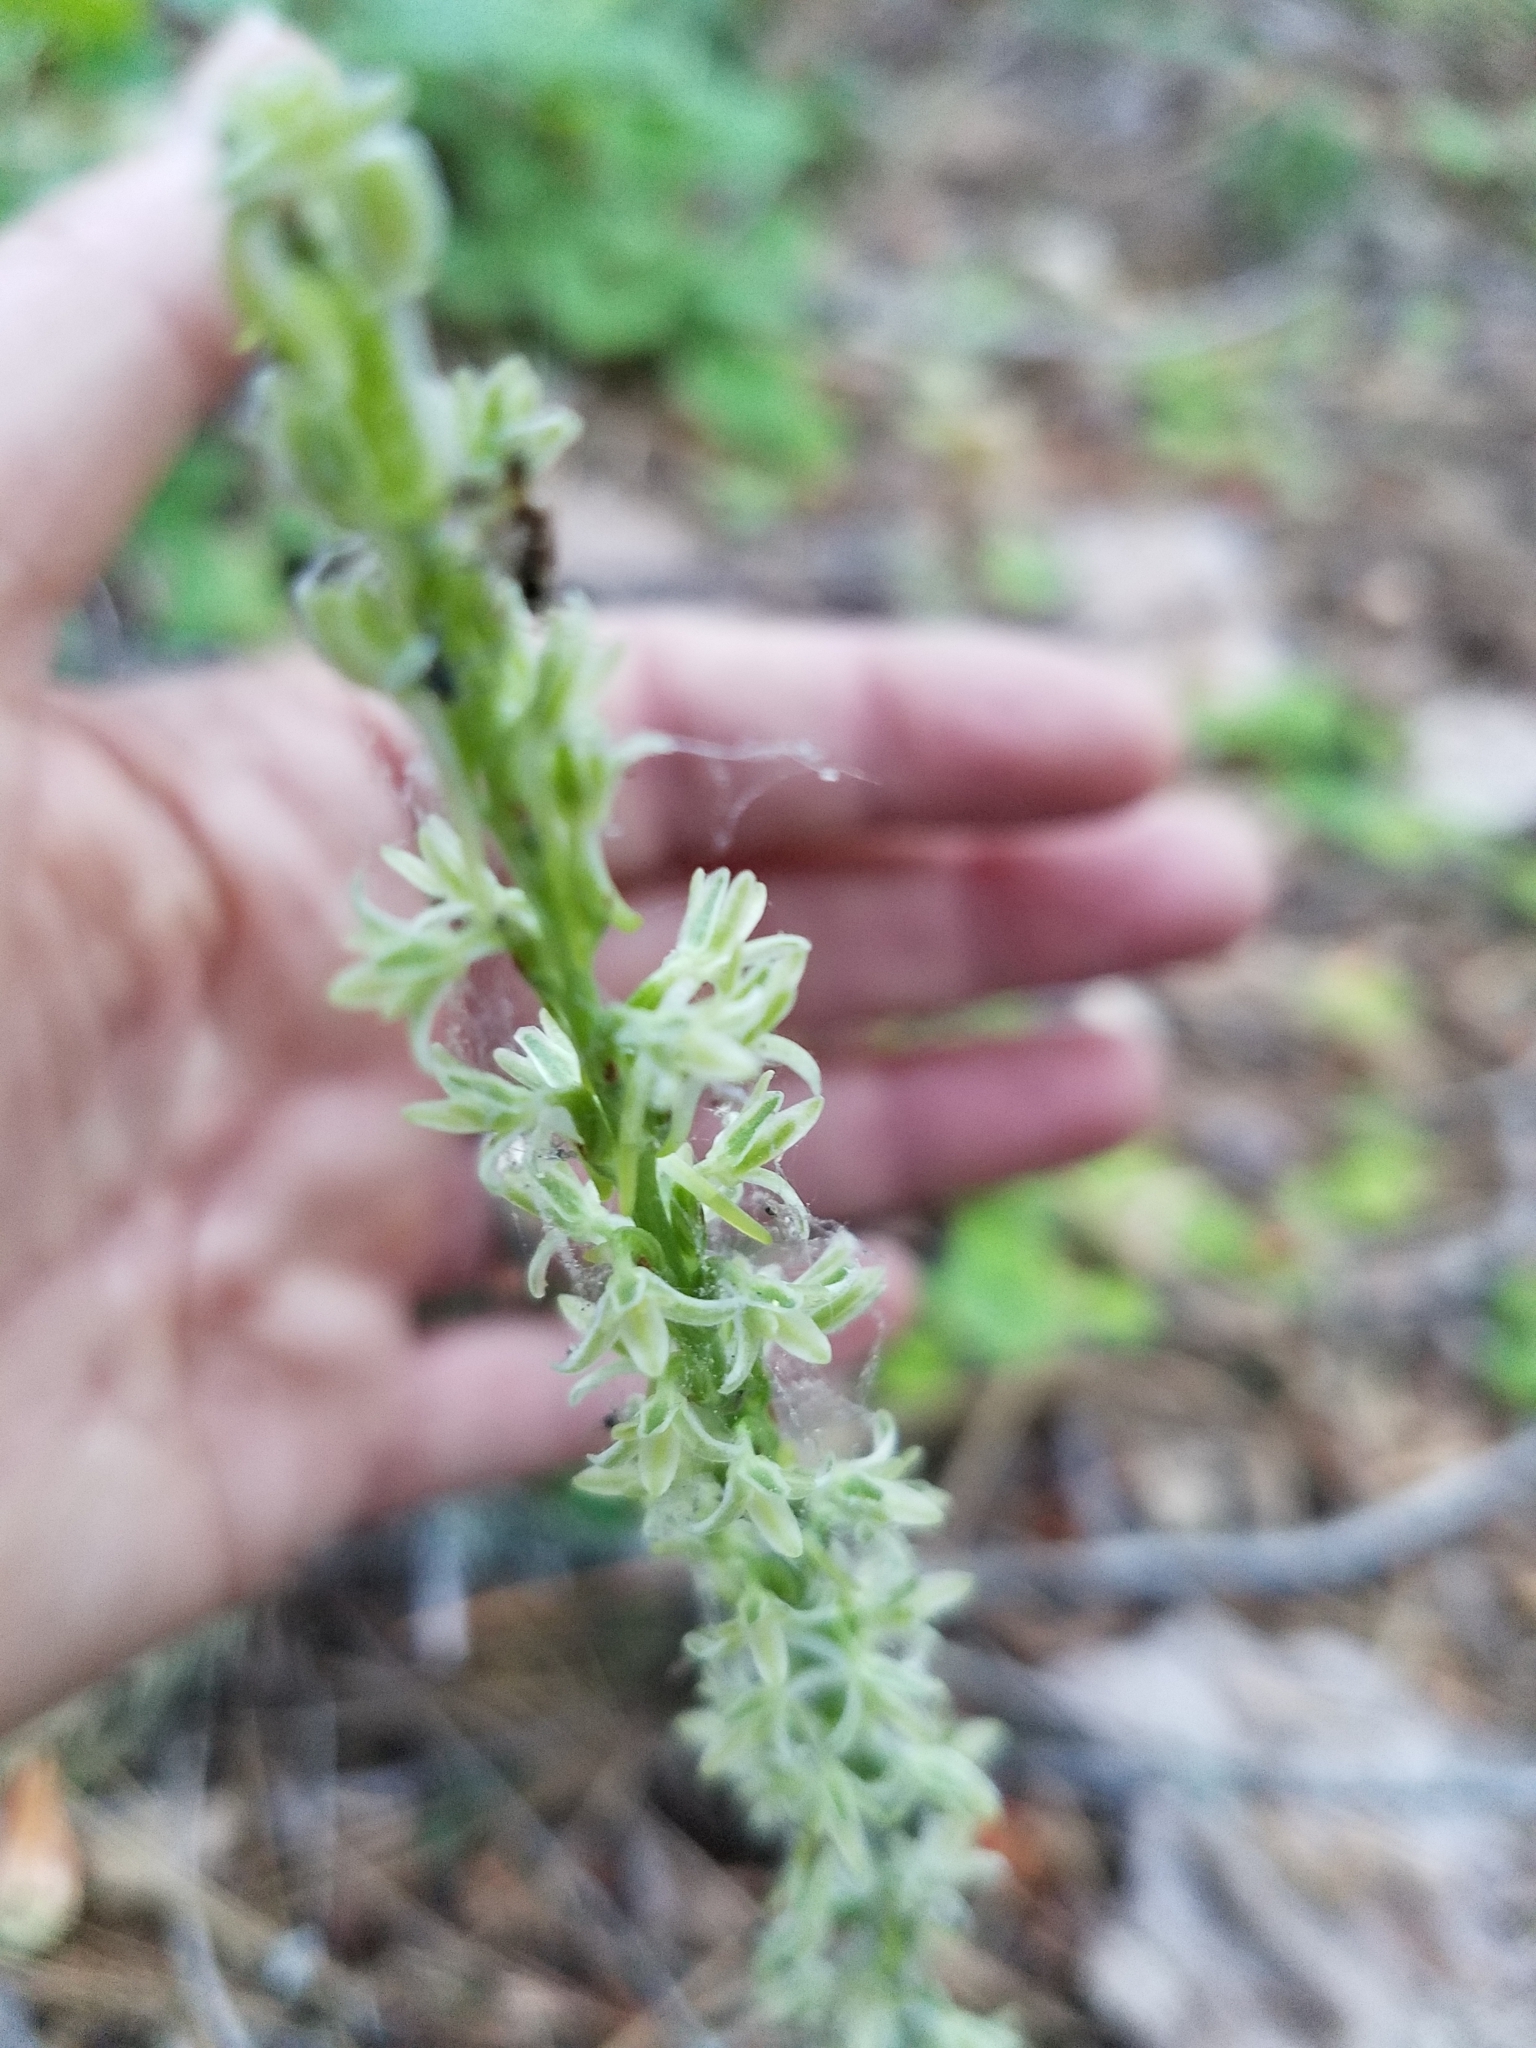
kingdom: Plantae
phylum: Tracheophyta
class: Liliopsida
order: Asparagales
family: Orchidaceae
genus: Platanthera
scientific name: Platanthera transversa
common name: Royal rein orchid
